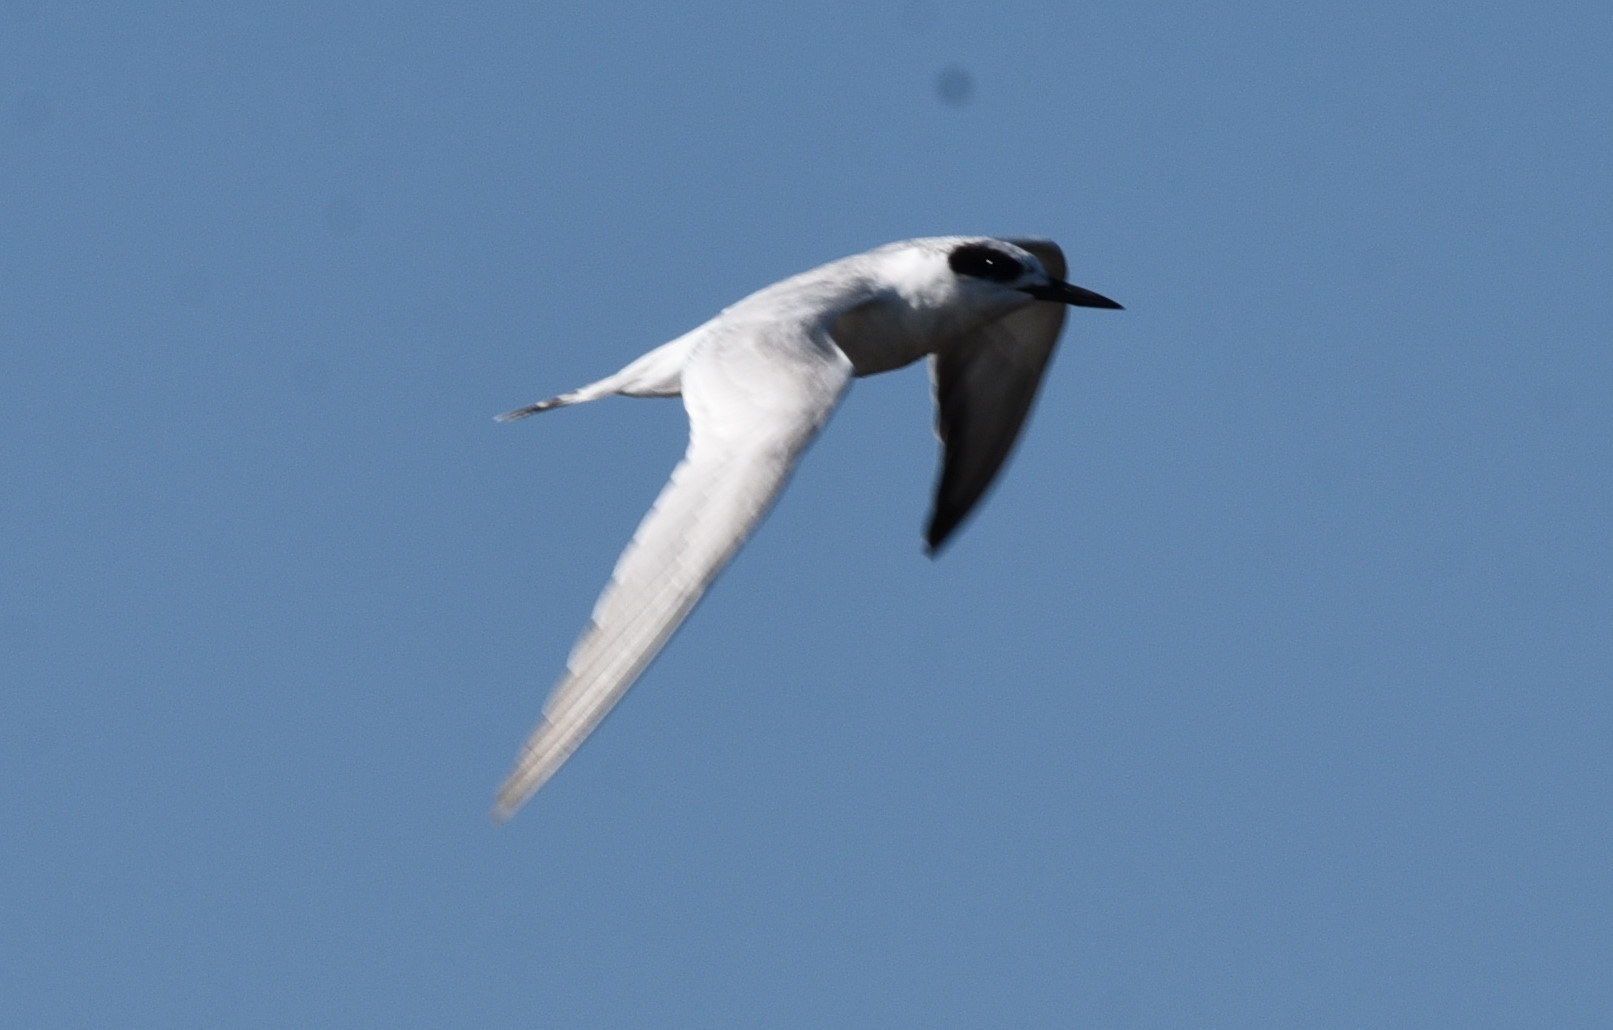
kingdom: Animalia
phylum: Chordata
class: Aves
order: Charadriiformes
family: Laridae
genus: Sterna
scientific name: Sterna forsteri
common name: Forster's tern
